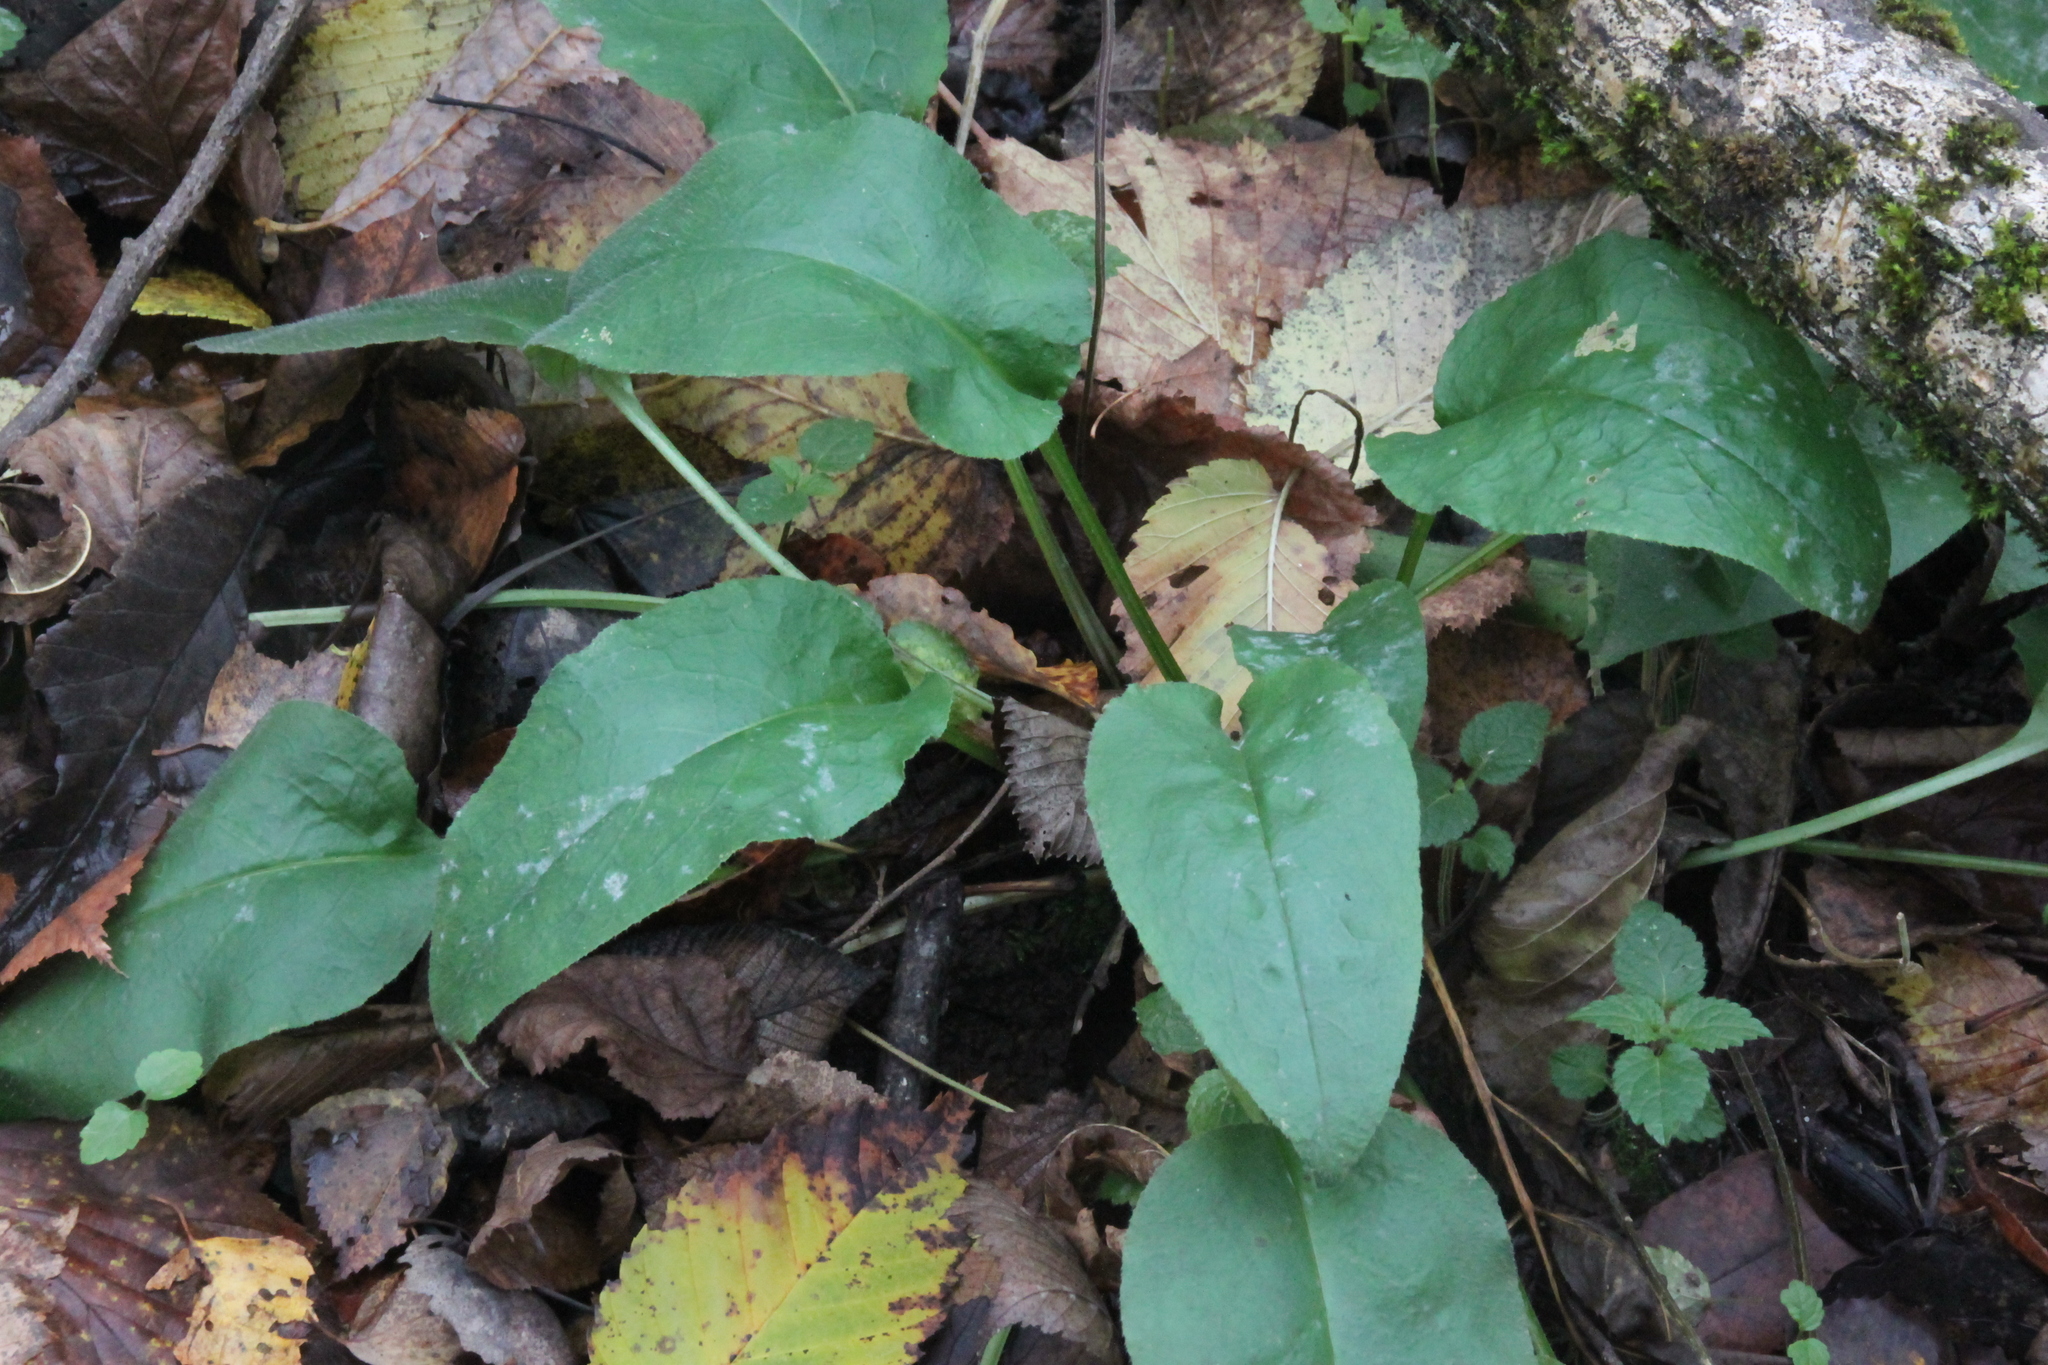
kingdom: Plantae
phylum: Tracheophyta
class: Magnoliopsida
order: Boraginales
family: Boraginaceae
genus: Pulmonaria
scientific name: Pulmonaria obscura
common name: Suffolk lungwort
